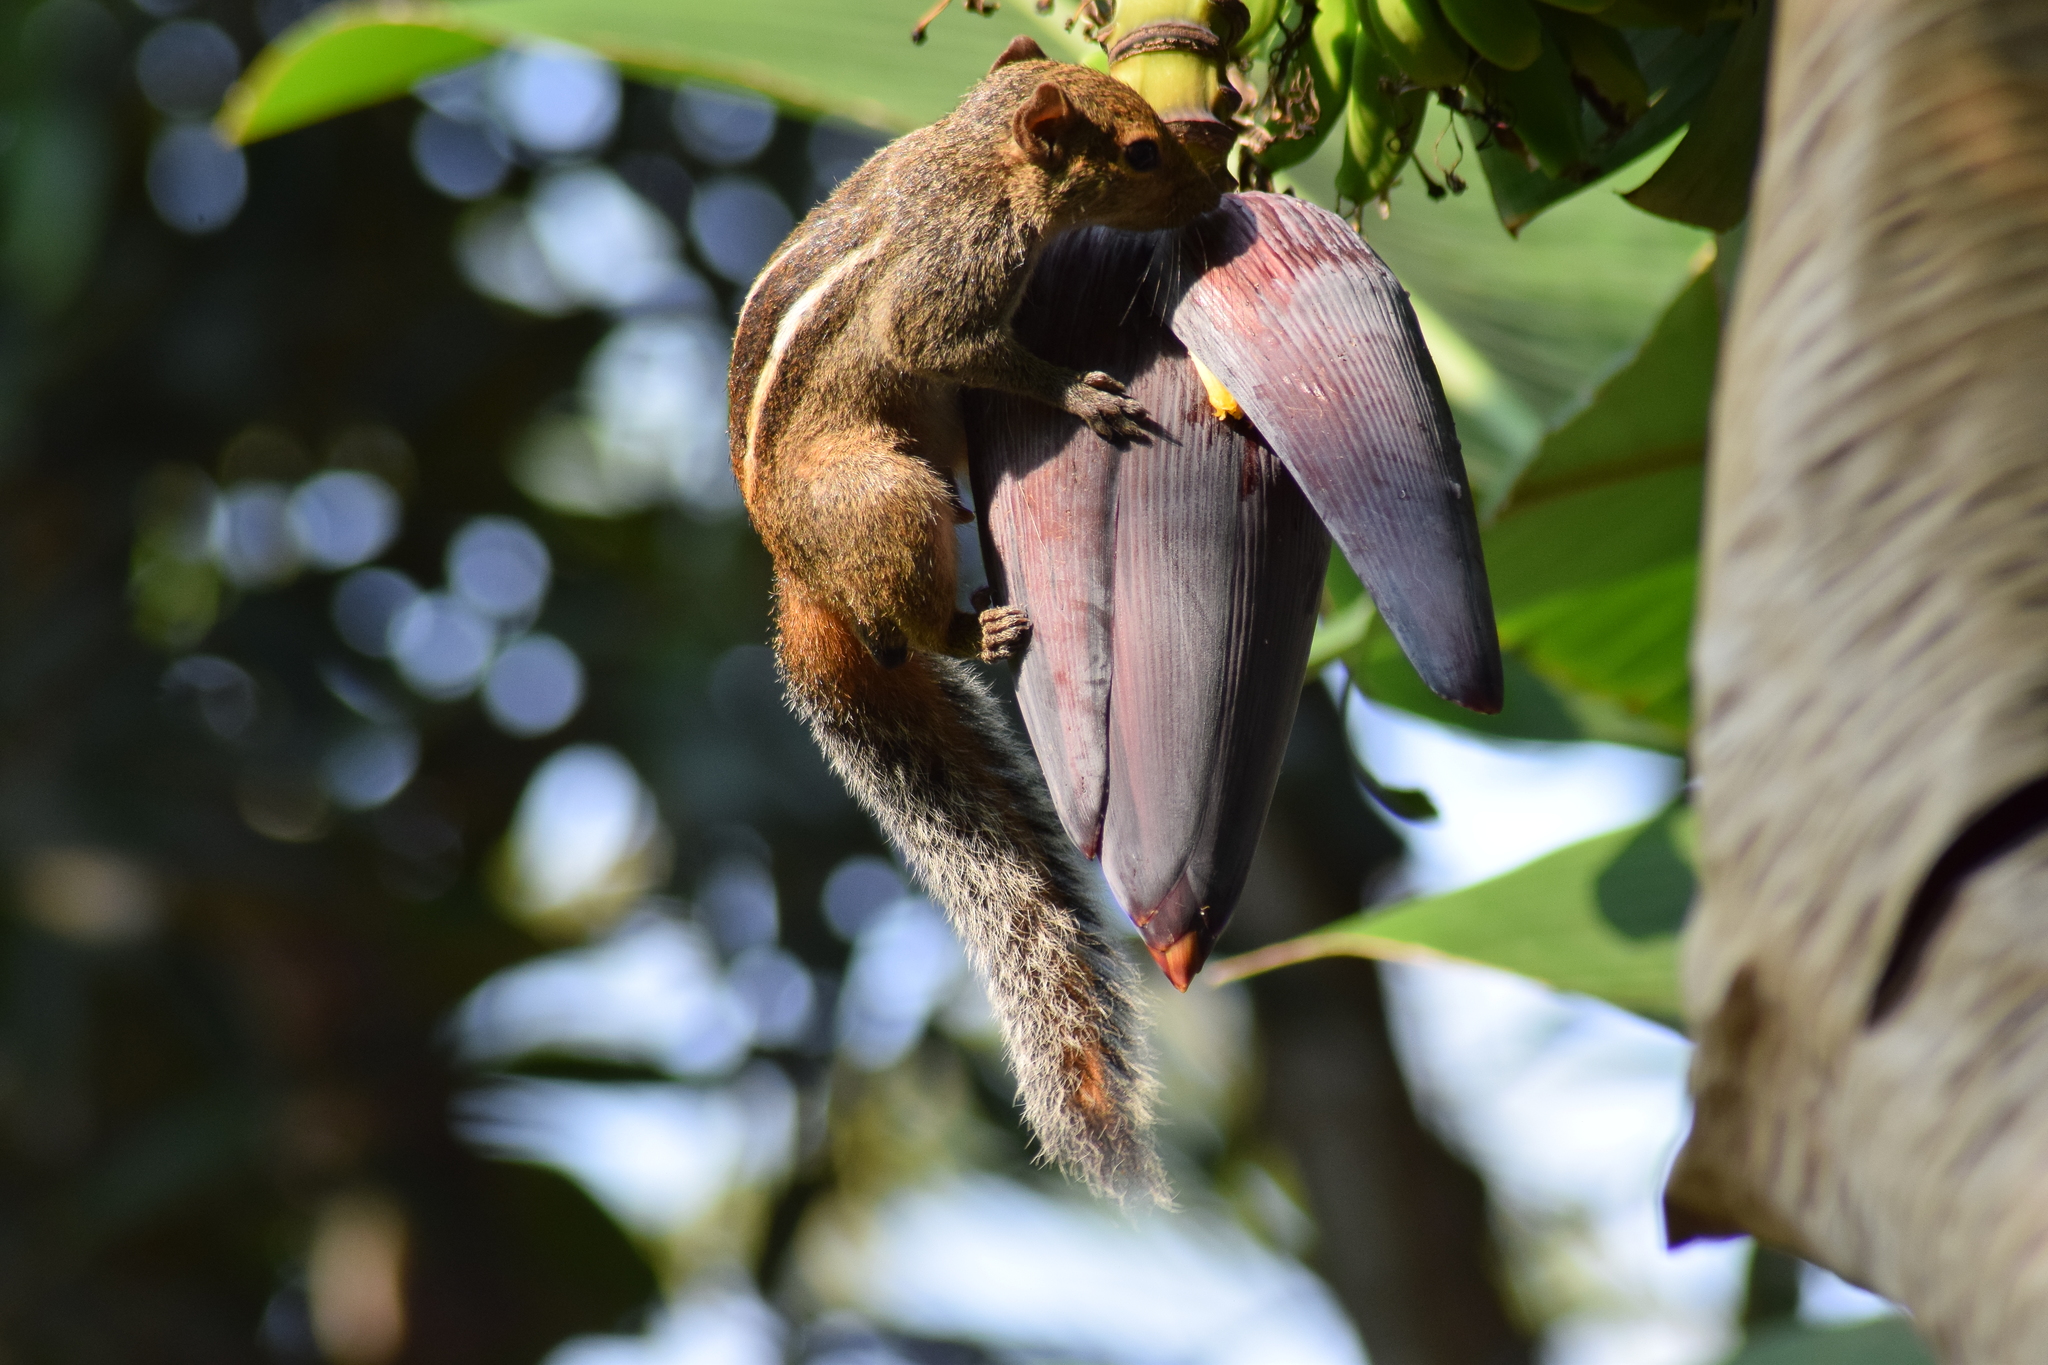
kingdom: Animalia
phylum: Chordata
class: Mammalia
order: Rodentia
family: Sciuridae
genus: Funambulus
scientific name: Funambulus tristriatus
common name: Jungle palm squirrel
